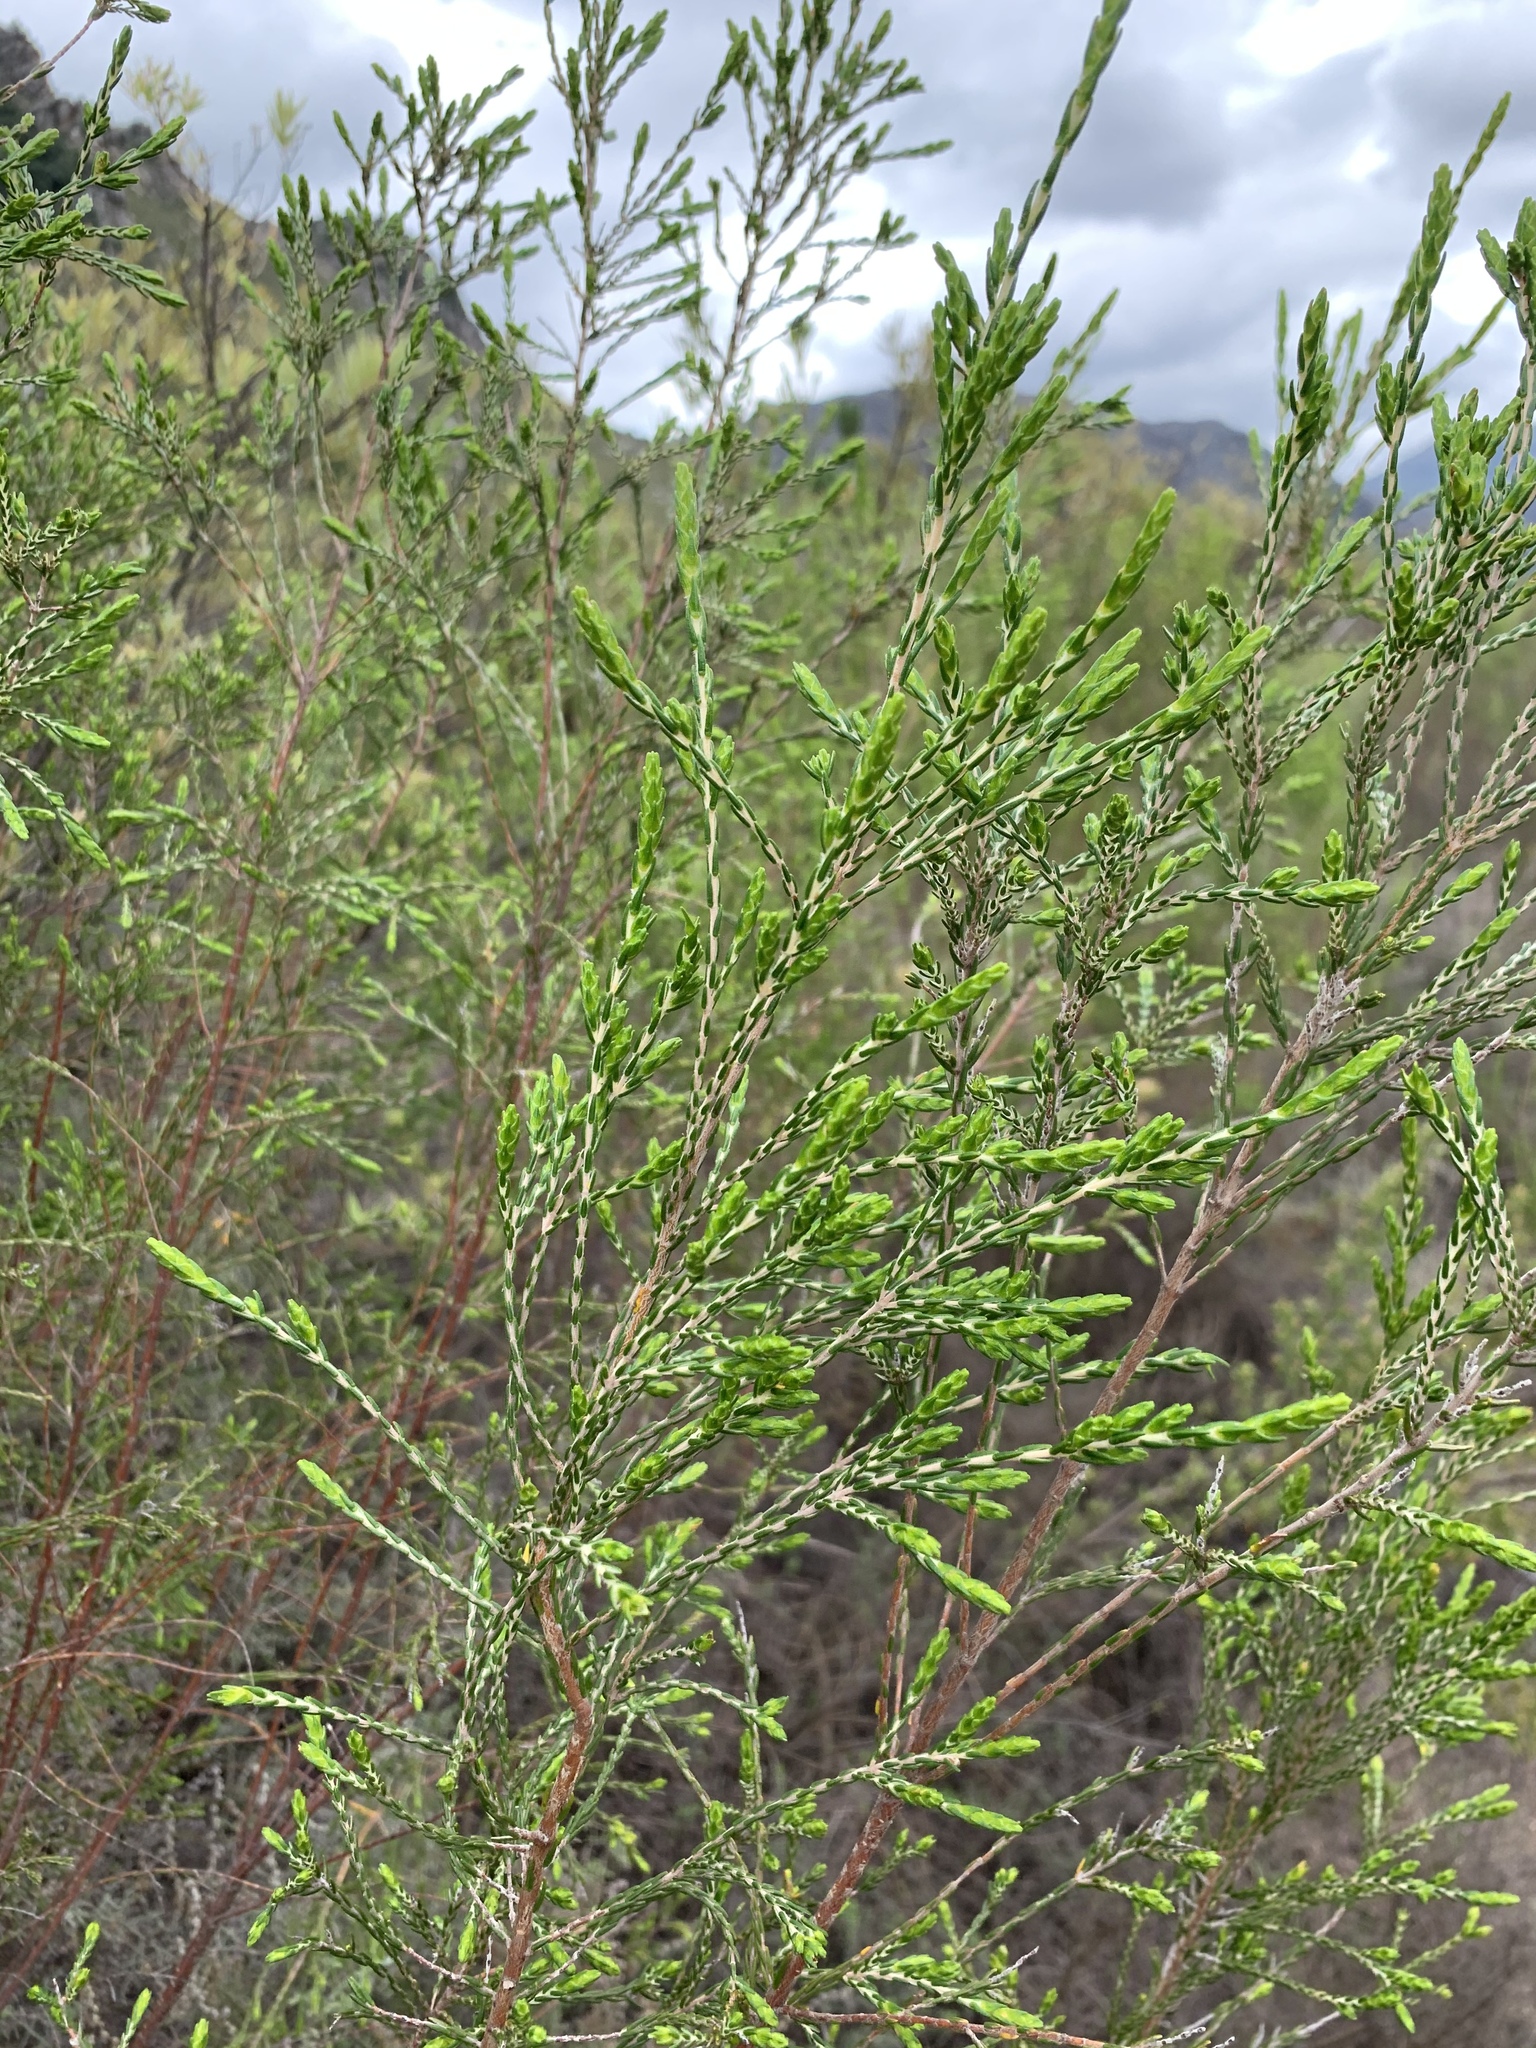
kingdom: Plantae
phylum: Tracheophyta
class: Magnoliopsida
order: Malvales
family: Thymelaeaceae
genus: Passerina
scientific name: Passerina corymbosa
